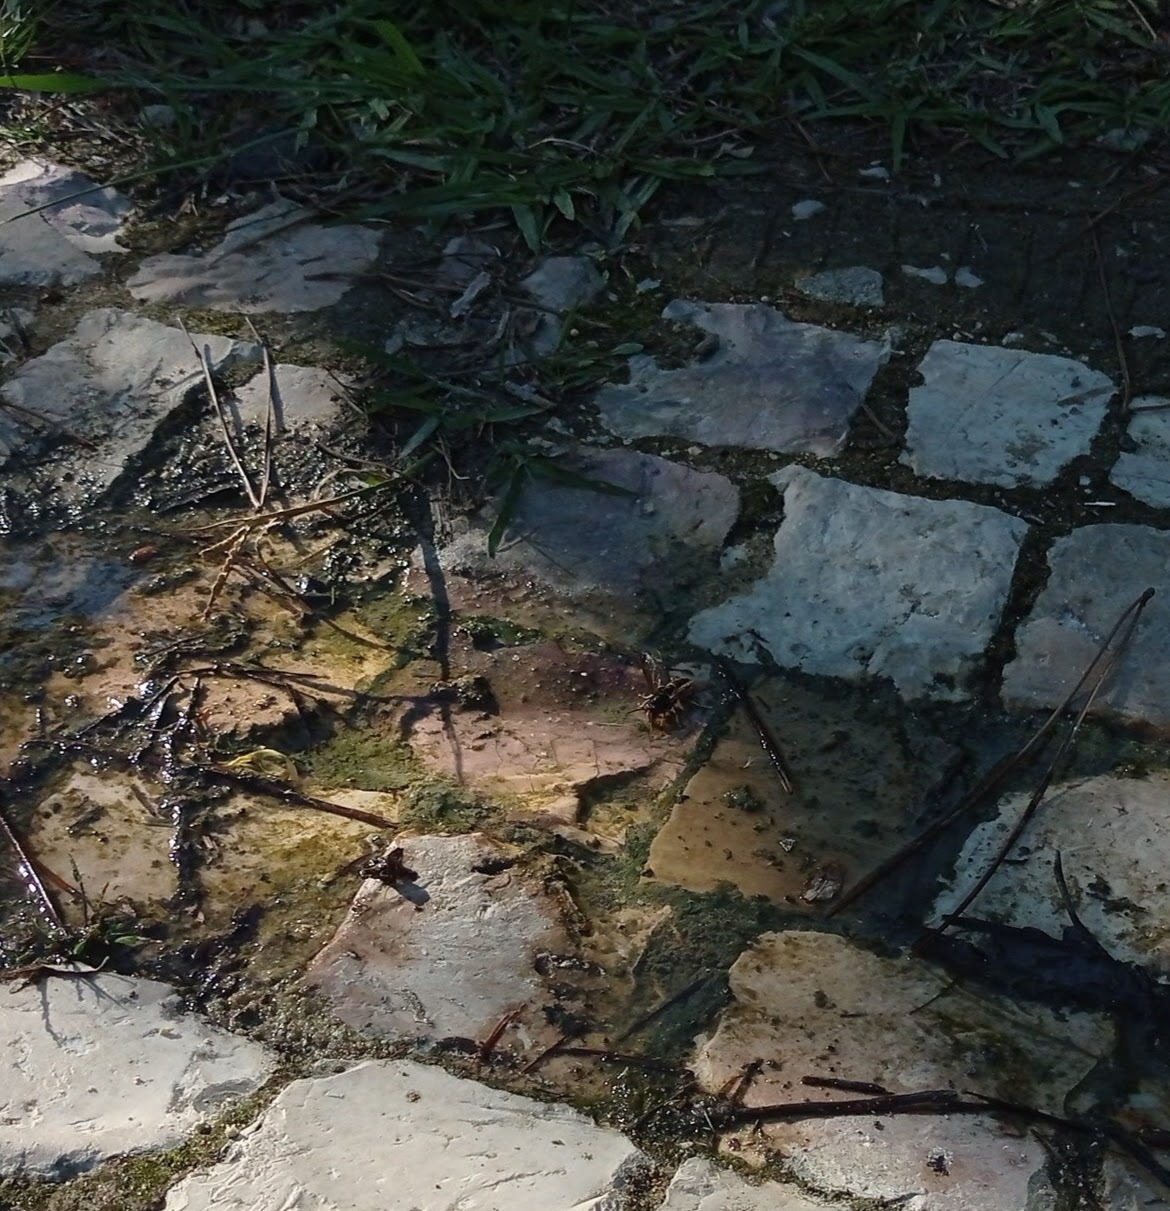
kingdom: Animalia
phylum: Arthropoda
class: Insecta
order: Hymenoptera
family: Vespidae
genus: Vespa
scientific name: Vespa velutina
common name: Asian hornet
